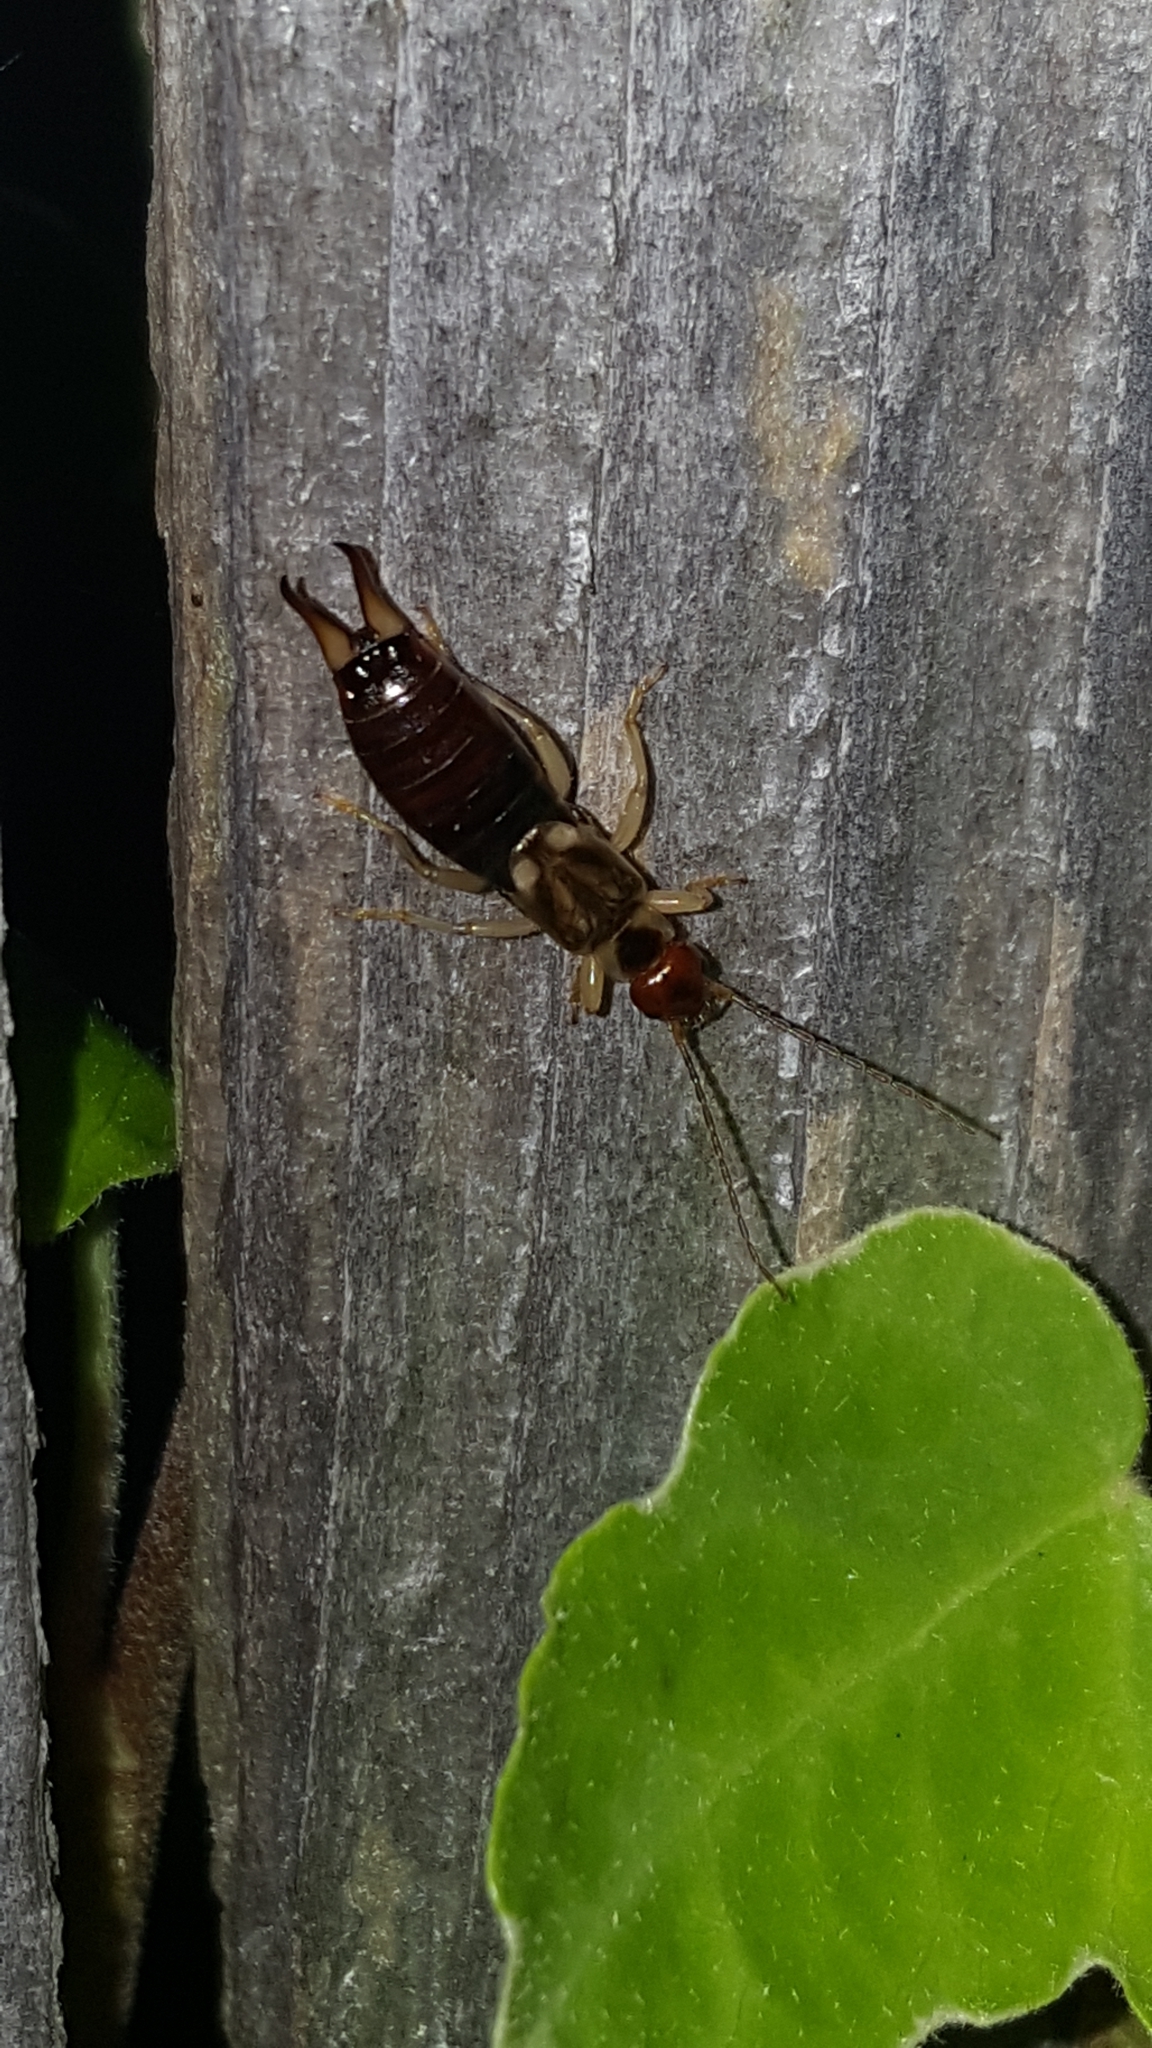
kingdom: Animalia
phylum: Arthropoda
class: Insecta
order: Dermaptera
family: Forficulidae
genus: Forficula
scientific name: Forficula
